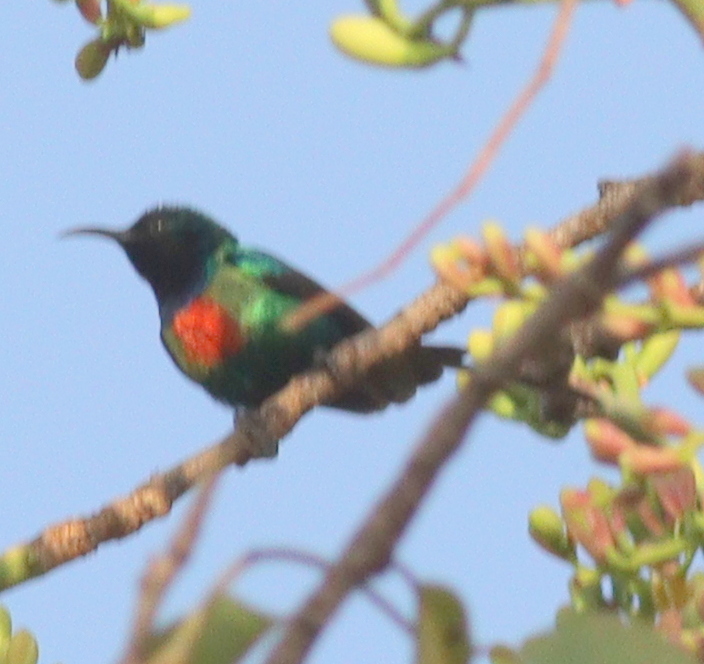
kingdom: Animalia
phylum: Chordata
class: Aves
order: Passeriformes
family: Nectariniidae
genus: Cinnyris
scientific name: Cinnyris pulchellus
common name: Beautiful sunbird
